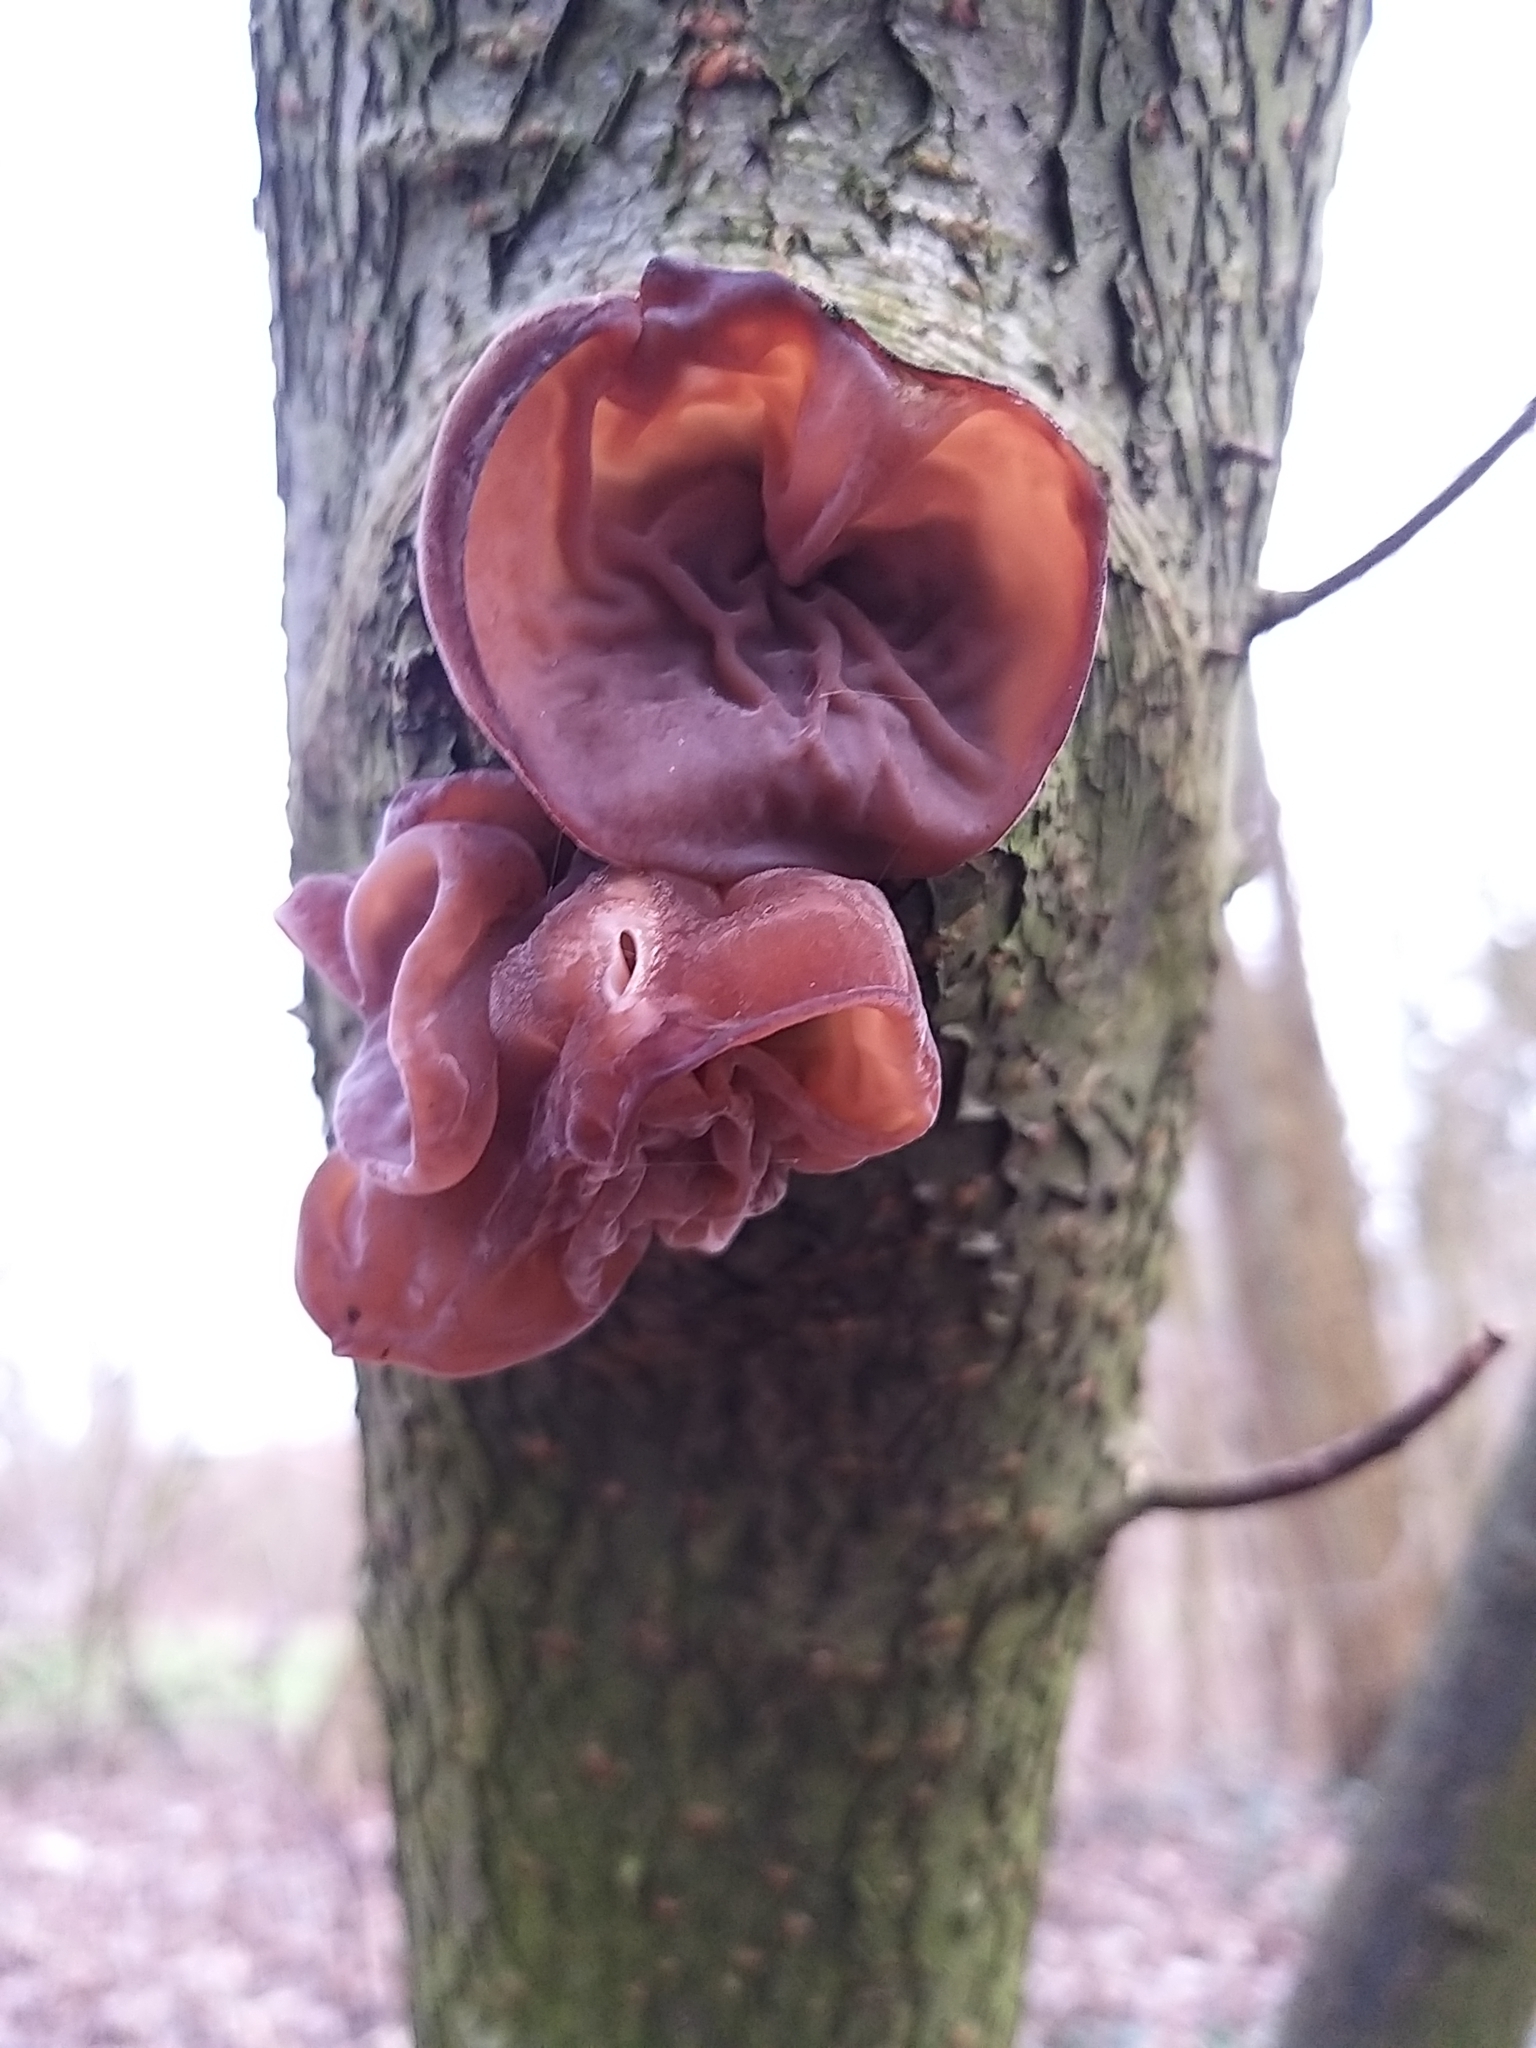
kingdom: Fungi
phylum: Basidiomycota
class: Agaricomycetes
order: Auriculariales
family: Auriculariaceae
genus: Auricularia
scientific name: Auricularia auricula-judae
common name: Jelly ear
